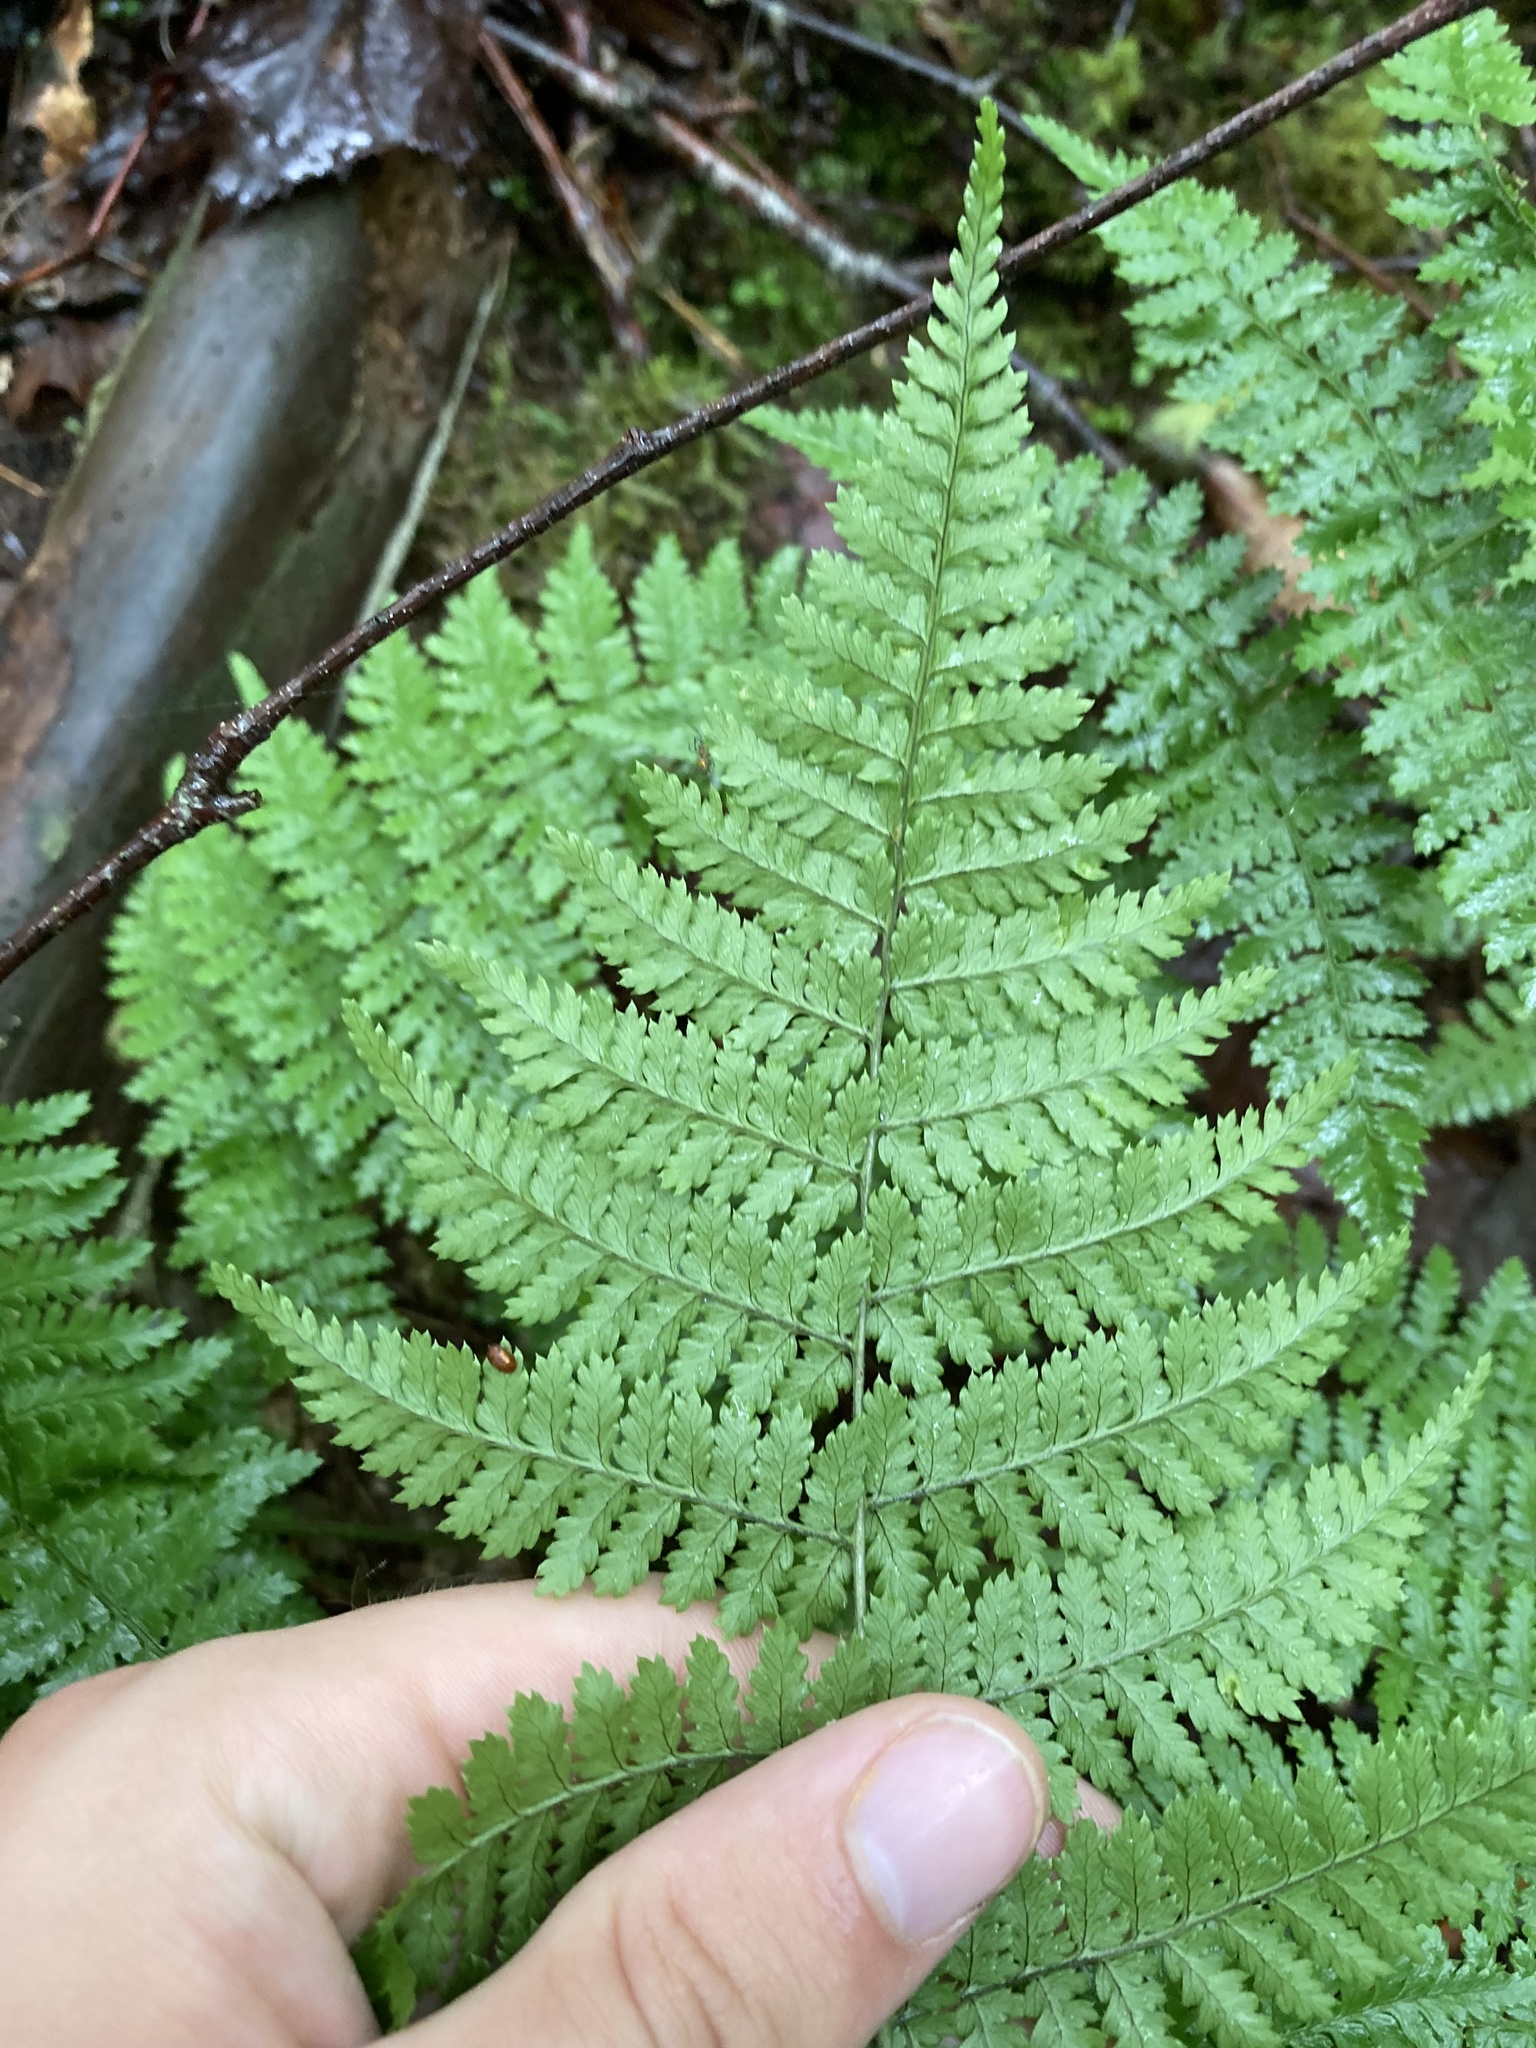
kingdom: Plantae
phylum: Tracheophyta
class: Polypodiopsida
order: Polypodiales
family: Dryopteridaceae
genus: Dryopteris
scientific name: Dryopteris intermedia
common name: Evergreen wood fern
